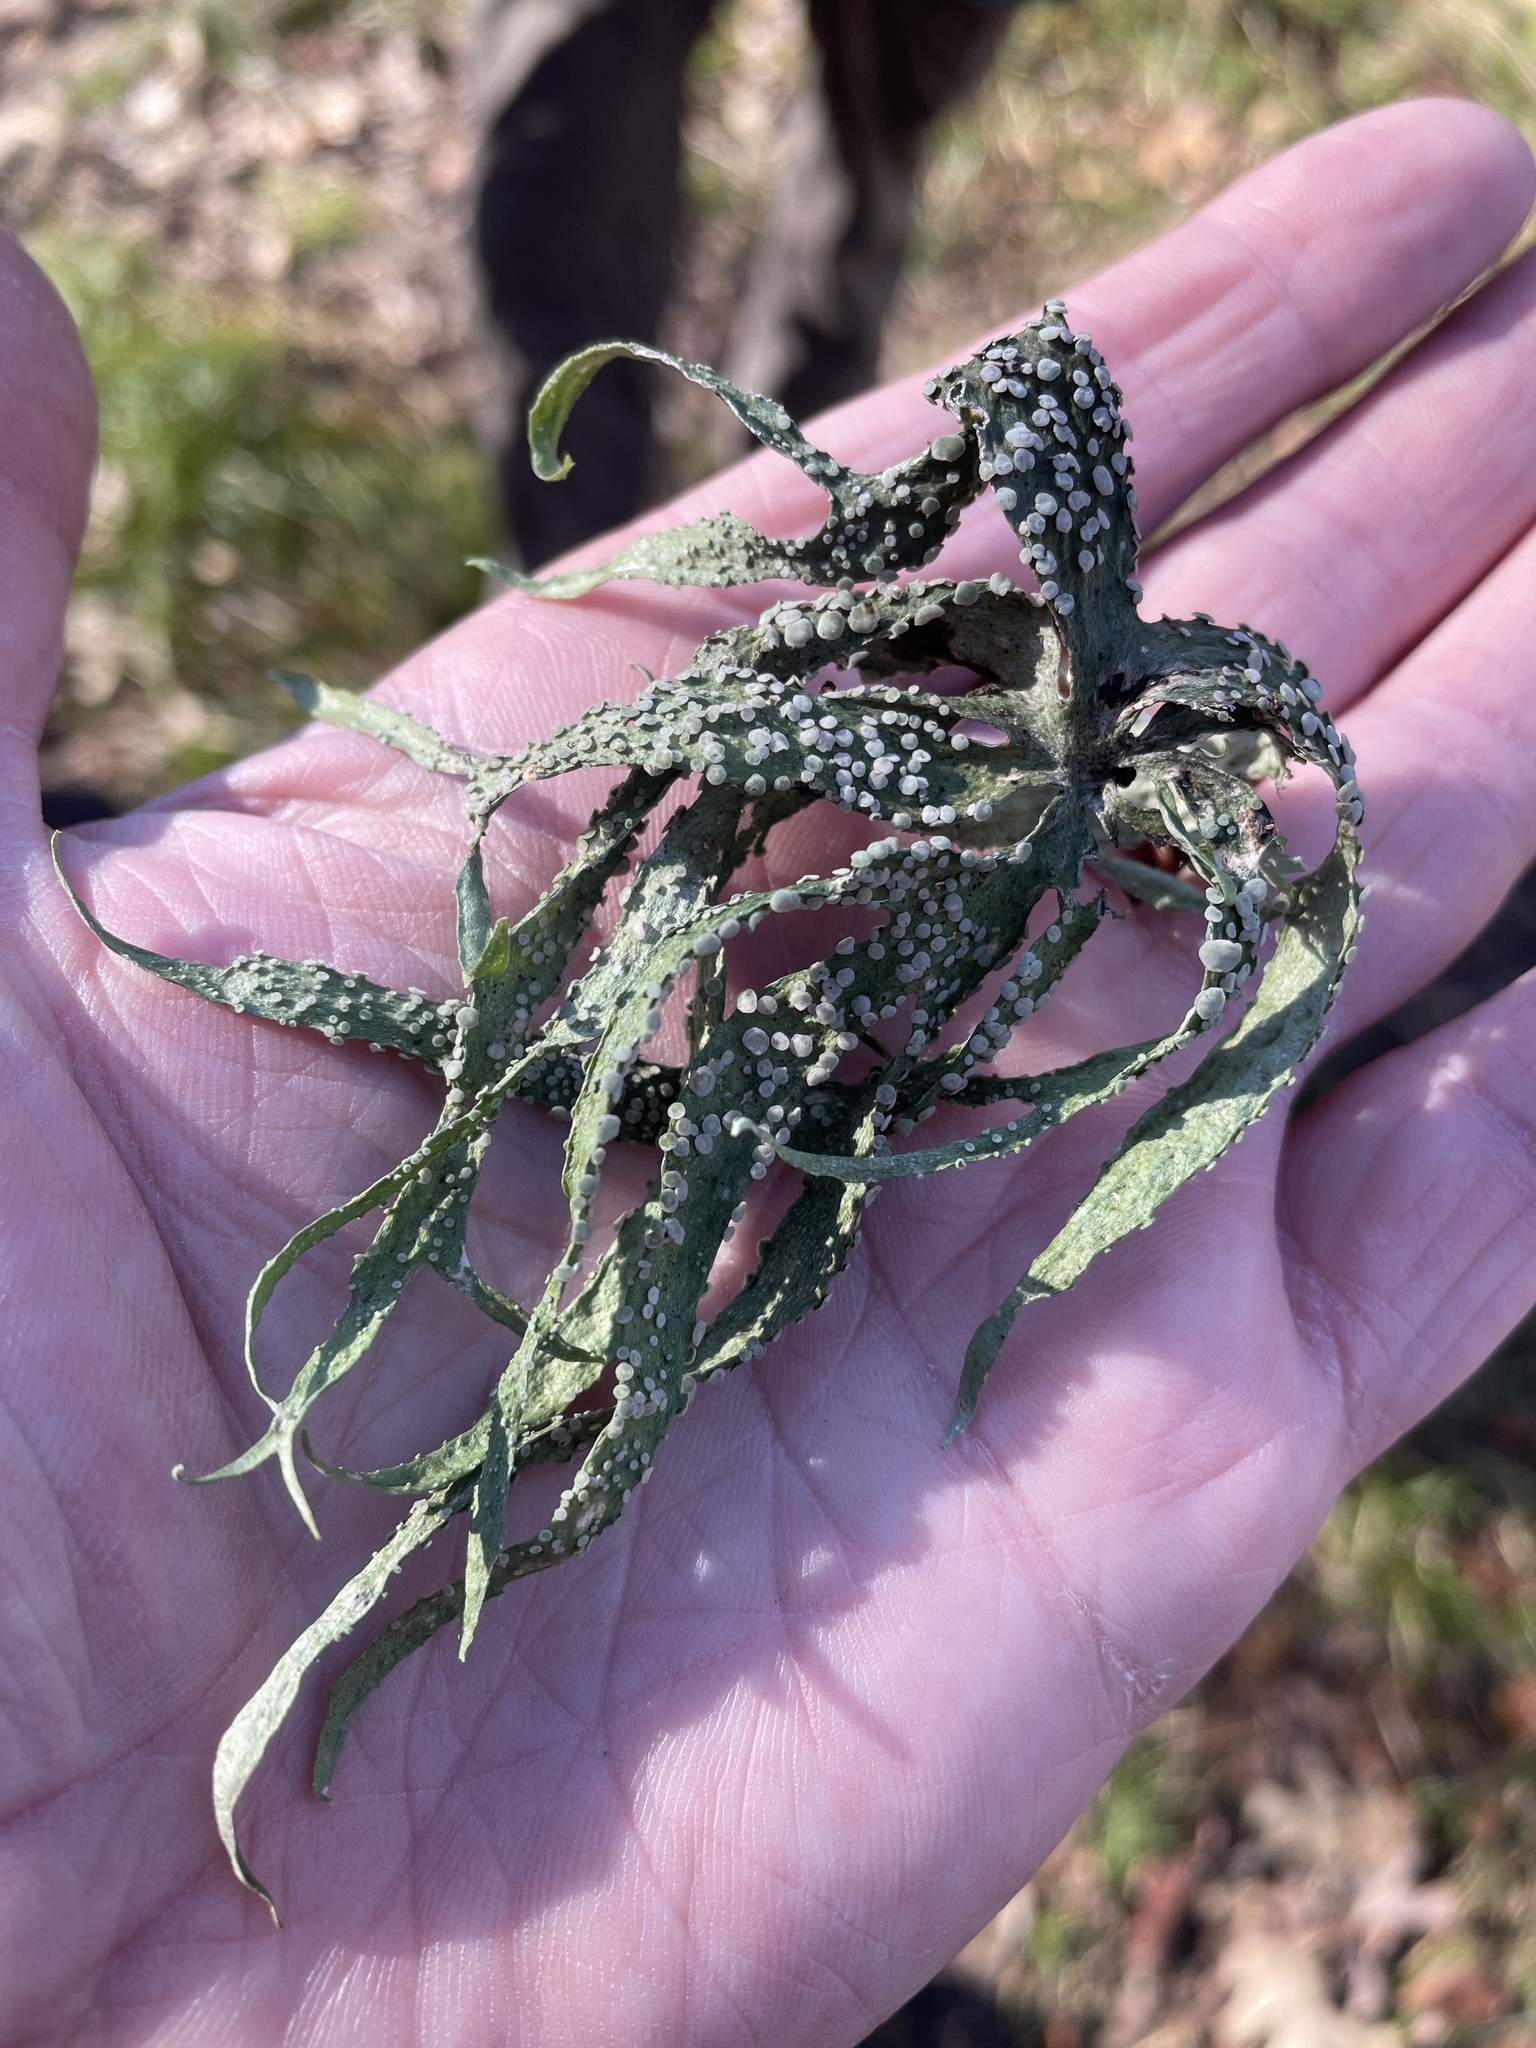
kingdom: Fungi
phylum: Ascomycota
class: Lecanoromycetes
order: Lecanorales
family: Ramalinaceae
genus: Ramalina
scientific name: Ramalina celastri
